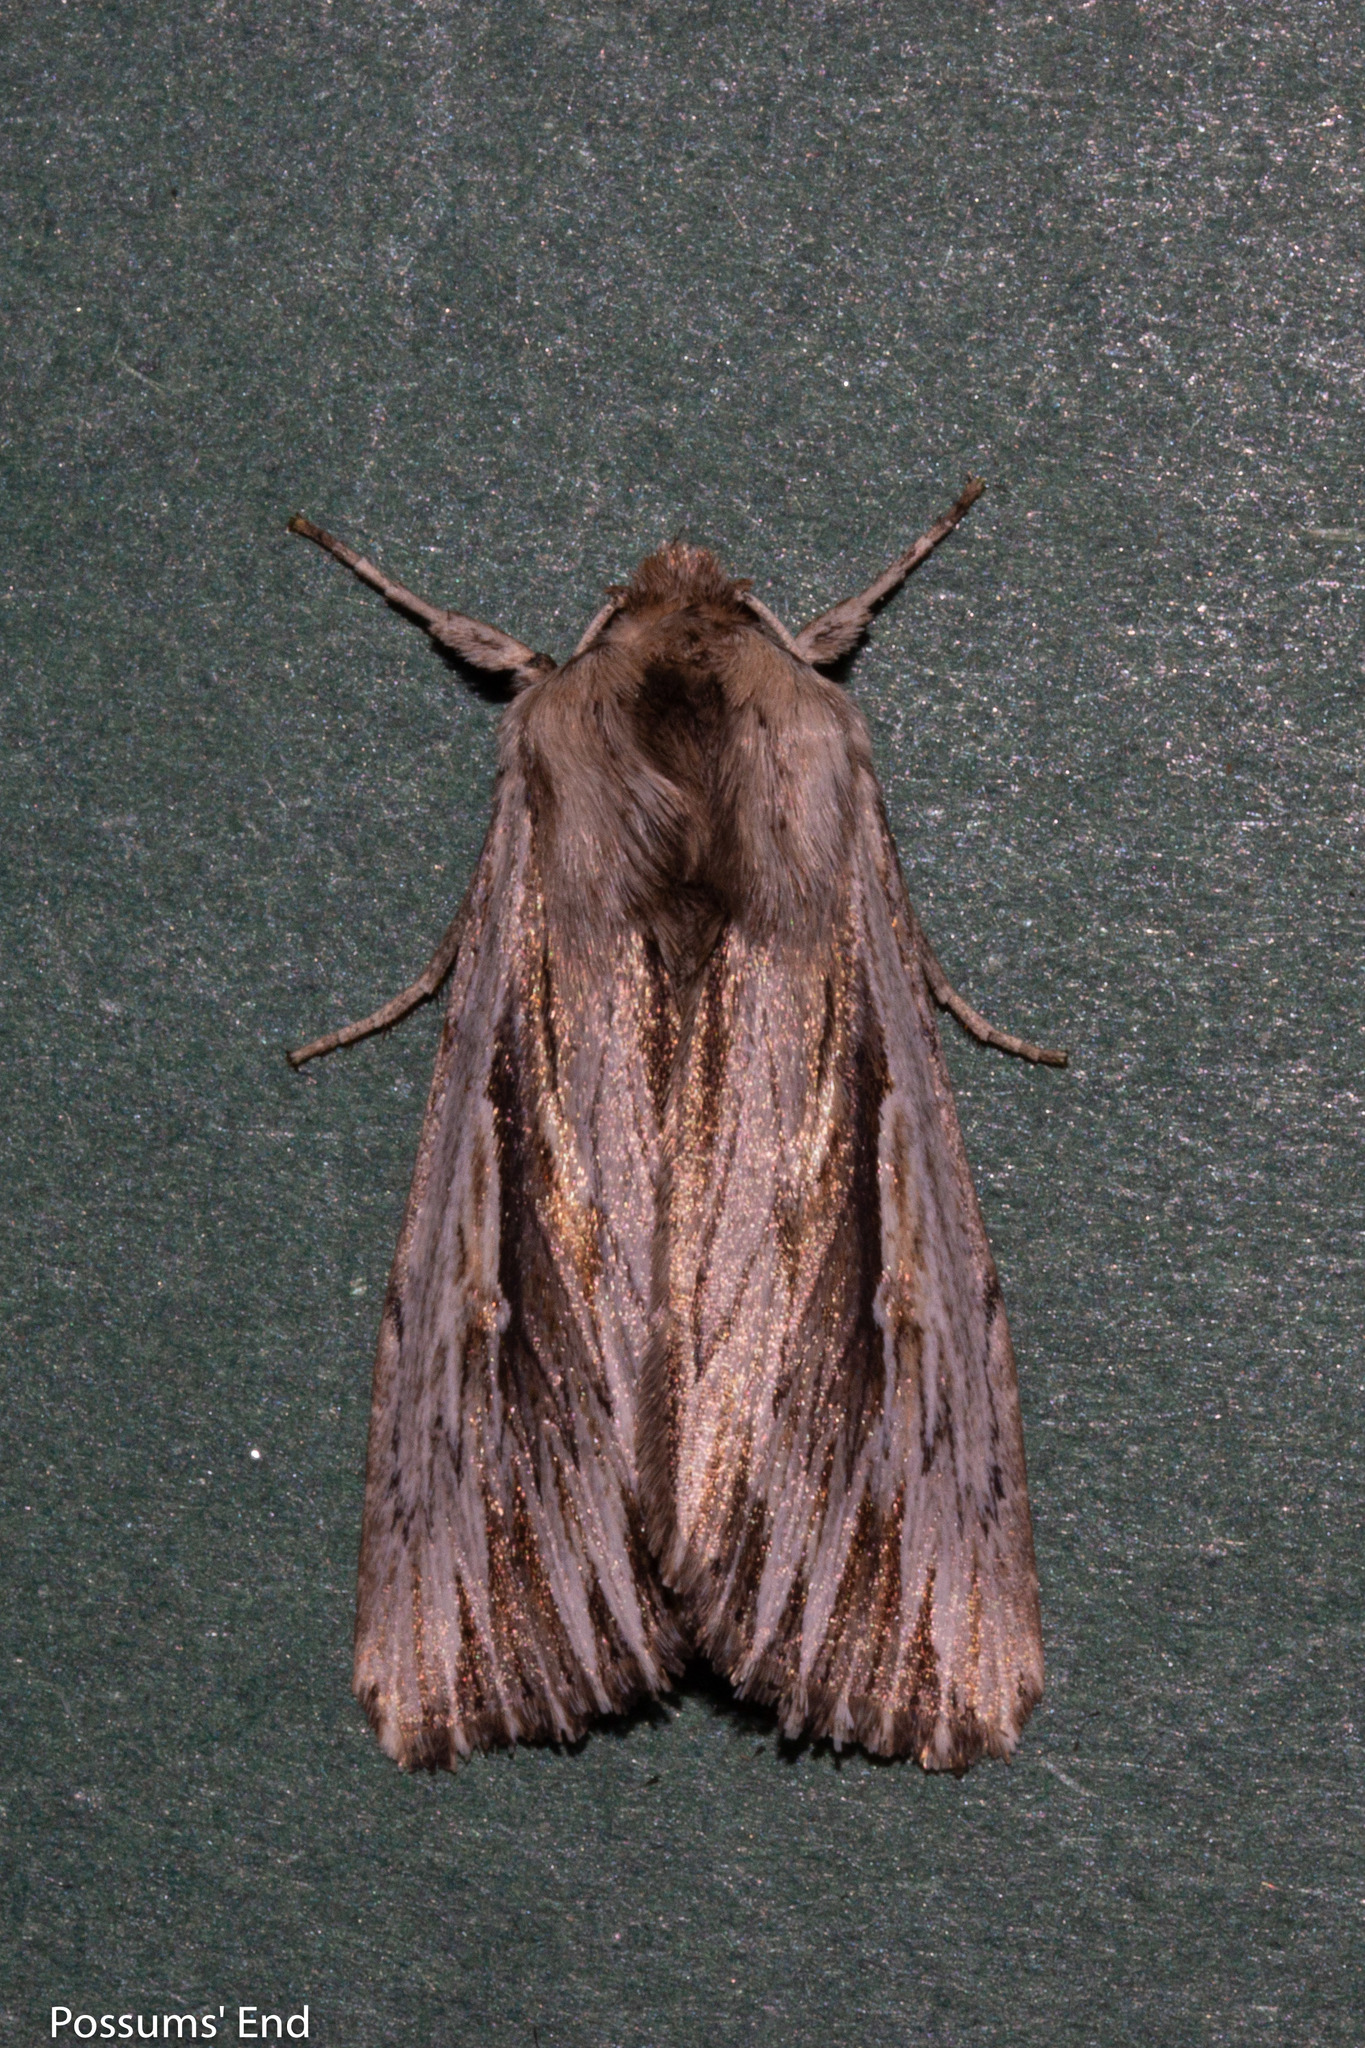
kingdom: Animalia
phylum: Arthropoda
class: Insecta
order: Lepidoptera
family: Noctuidae
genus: Persectania
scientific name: Persectania aversa
